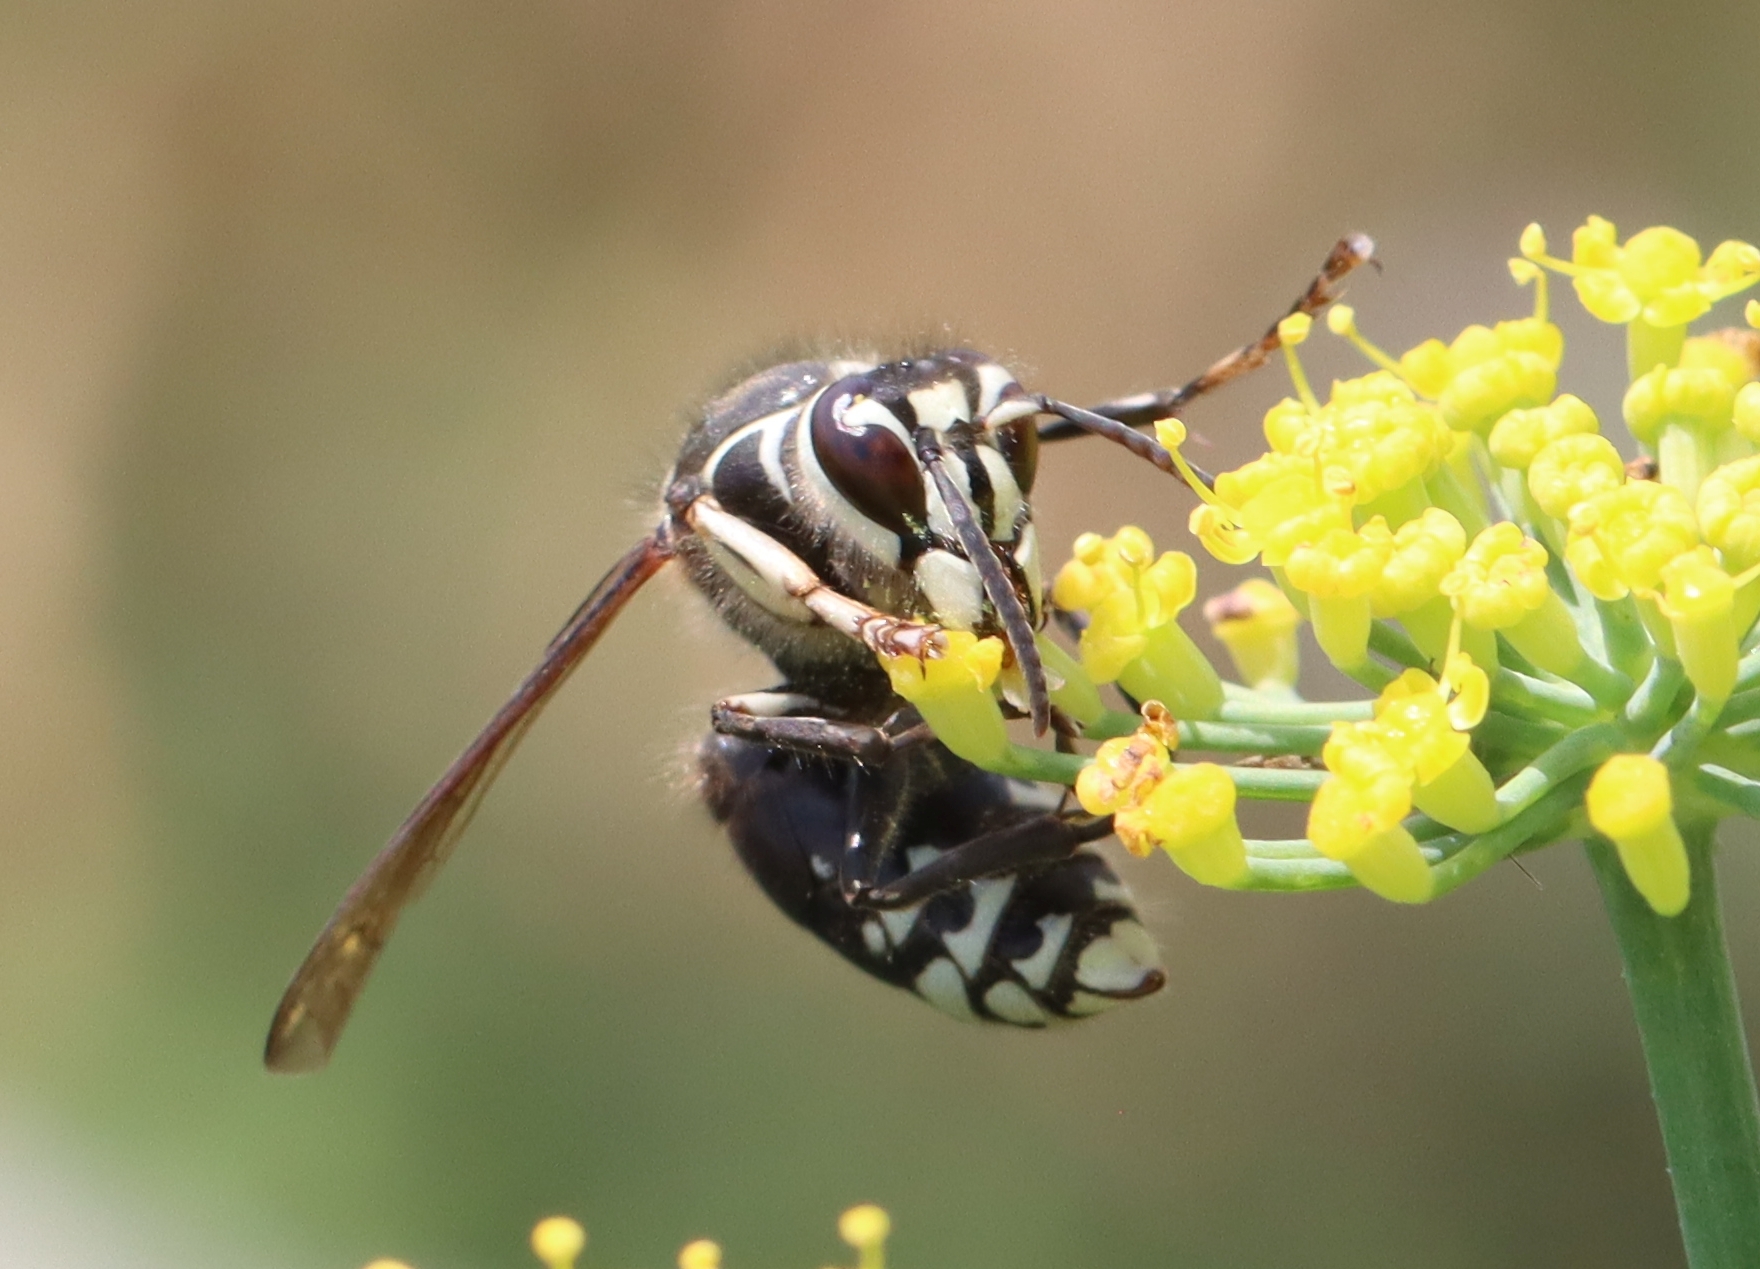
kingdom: Animalia
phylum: Arthropoda
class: Insecta
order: Hymenoptera
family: Vespidae
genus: Dolichovespula
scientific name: Dolichovespula maculata
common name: Bald-faced hornet
